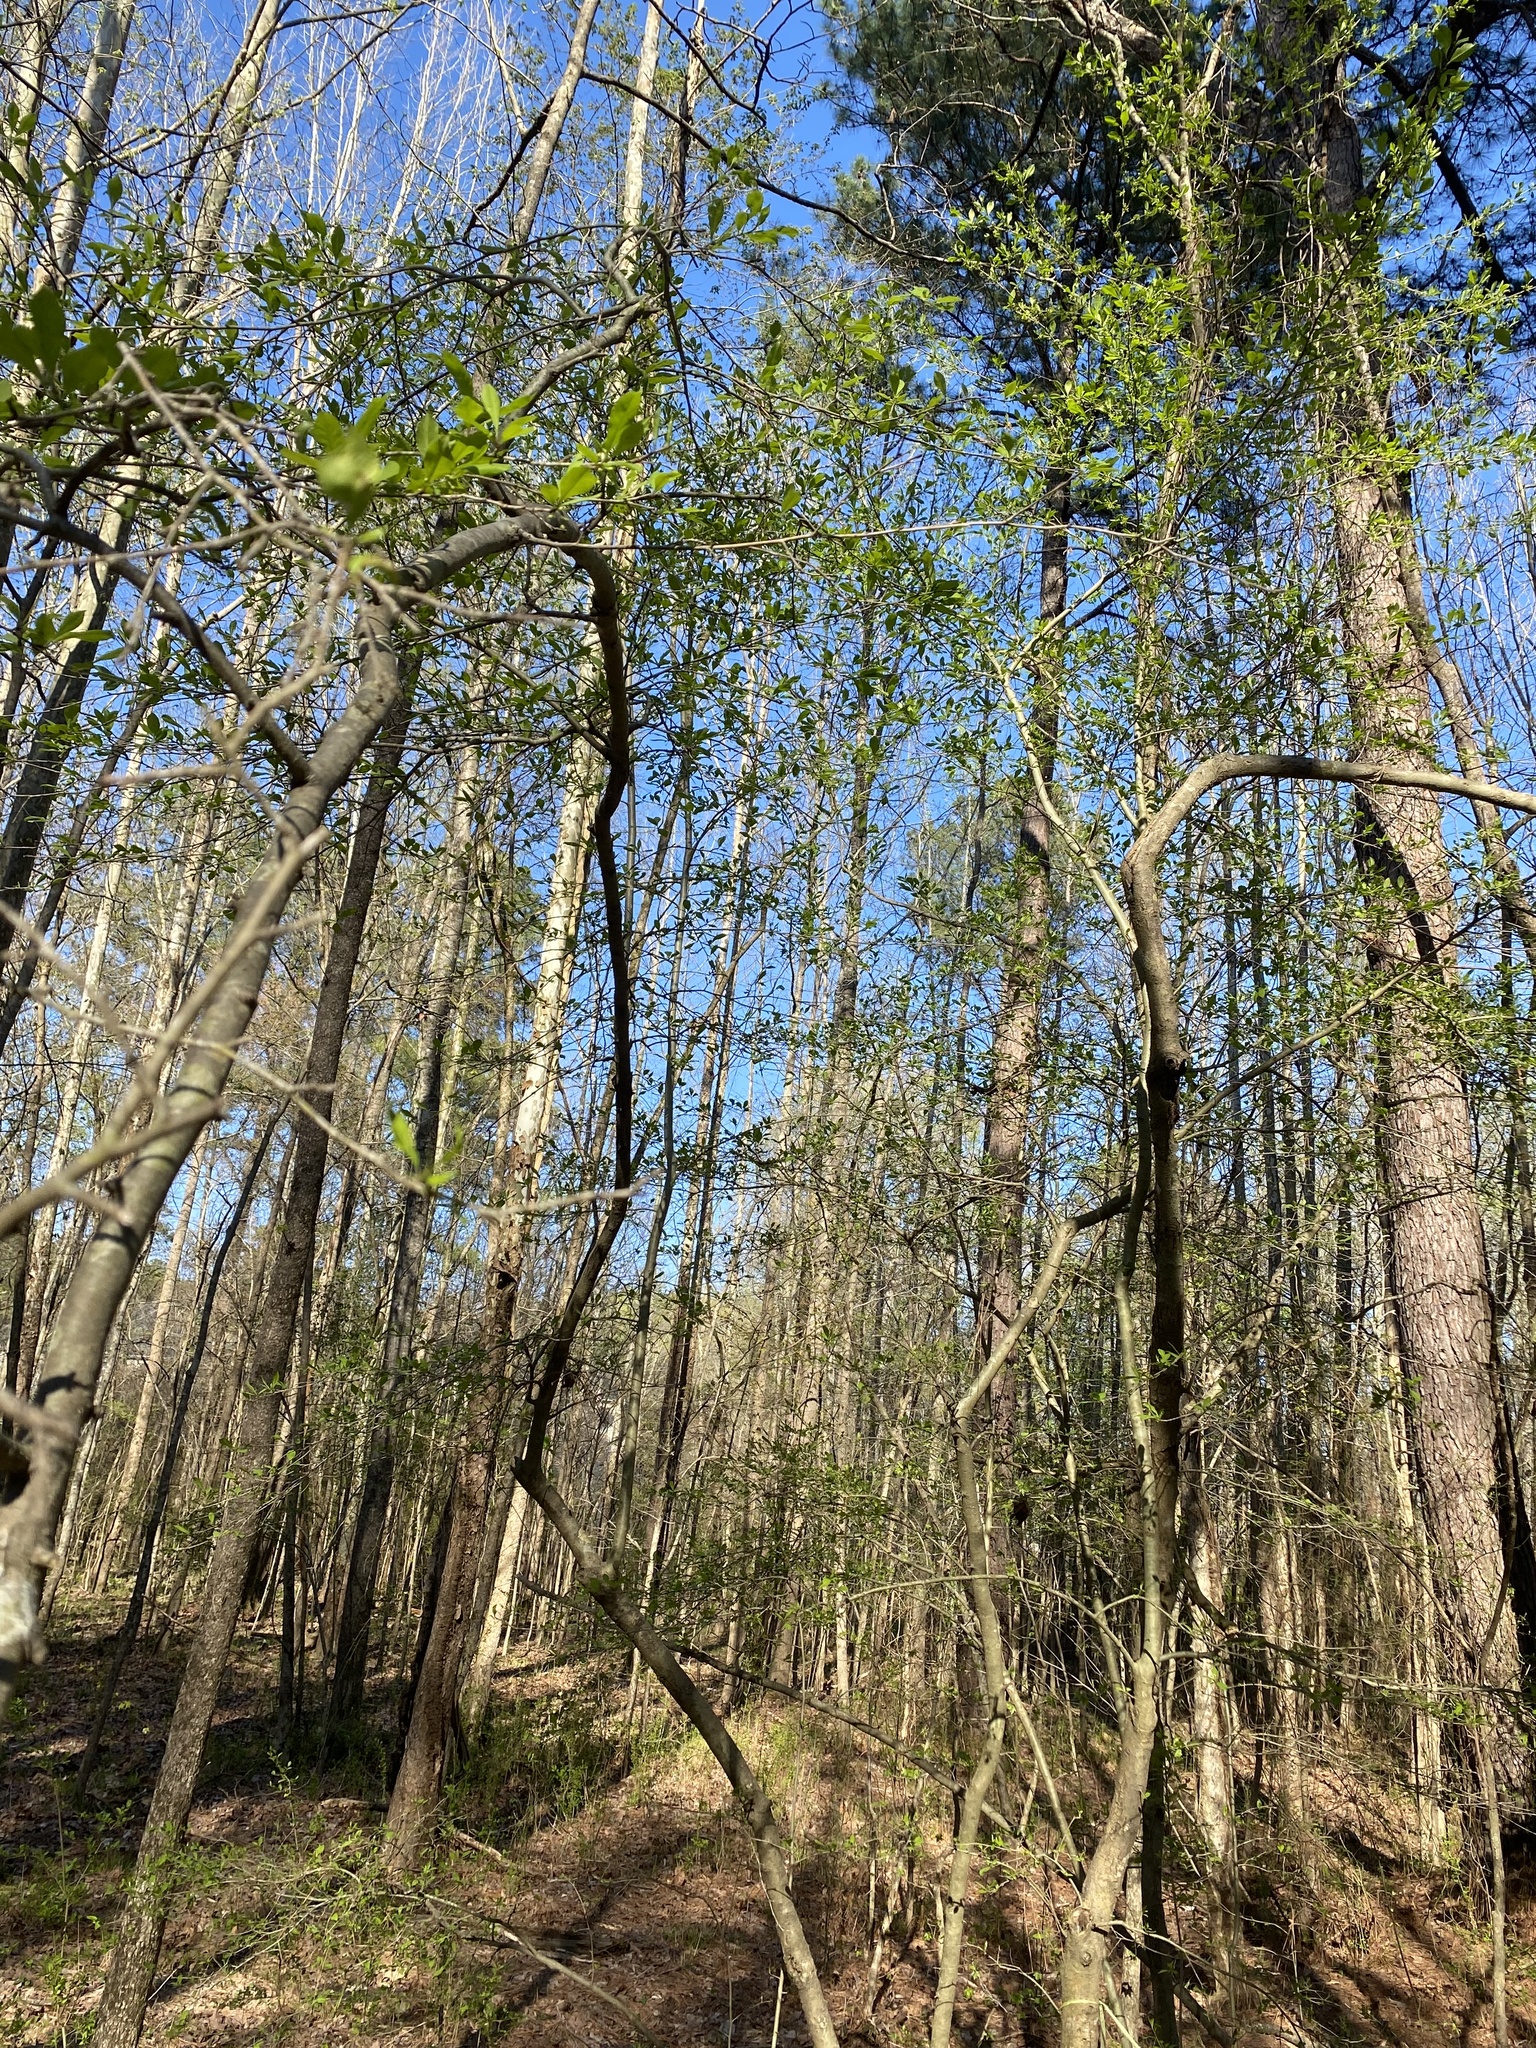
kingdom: Animalia
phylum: Arthropoda
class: Insecta
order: Diptera
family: Agromyzidae
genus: Phytomyza
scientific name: Phytomyza ditmani
